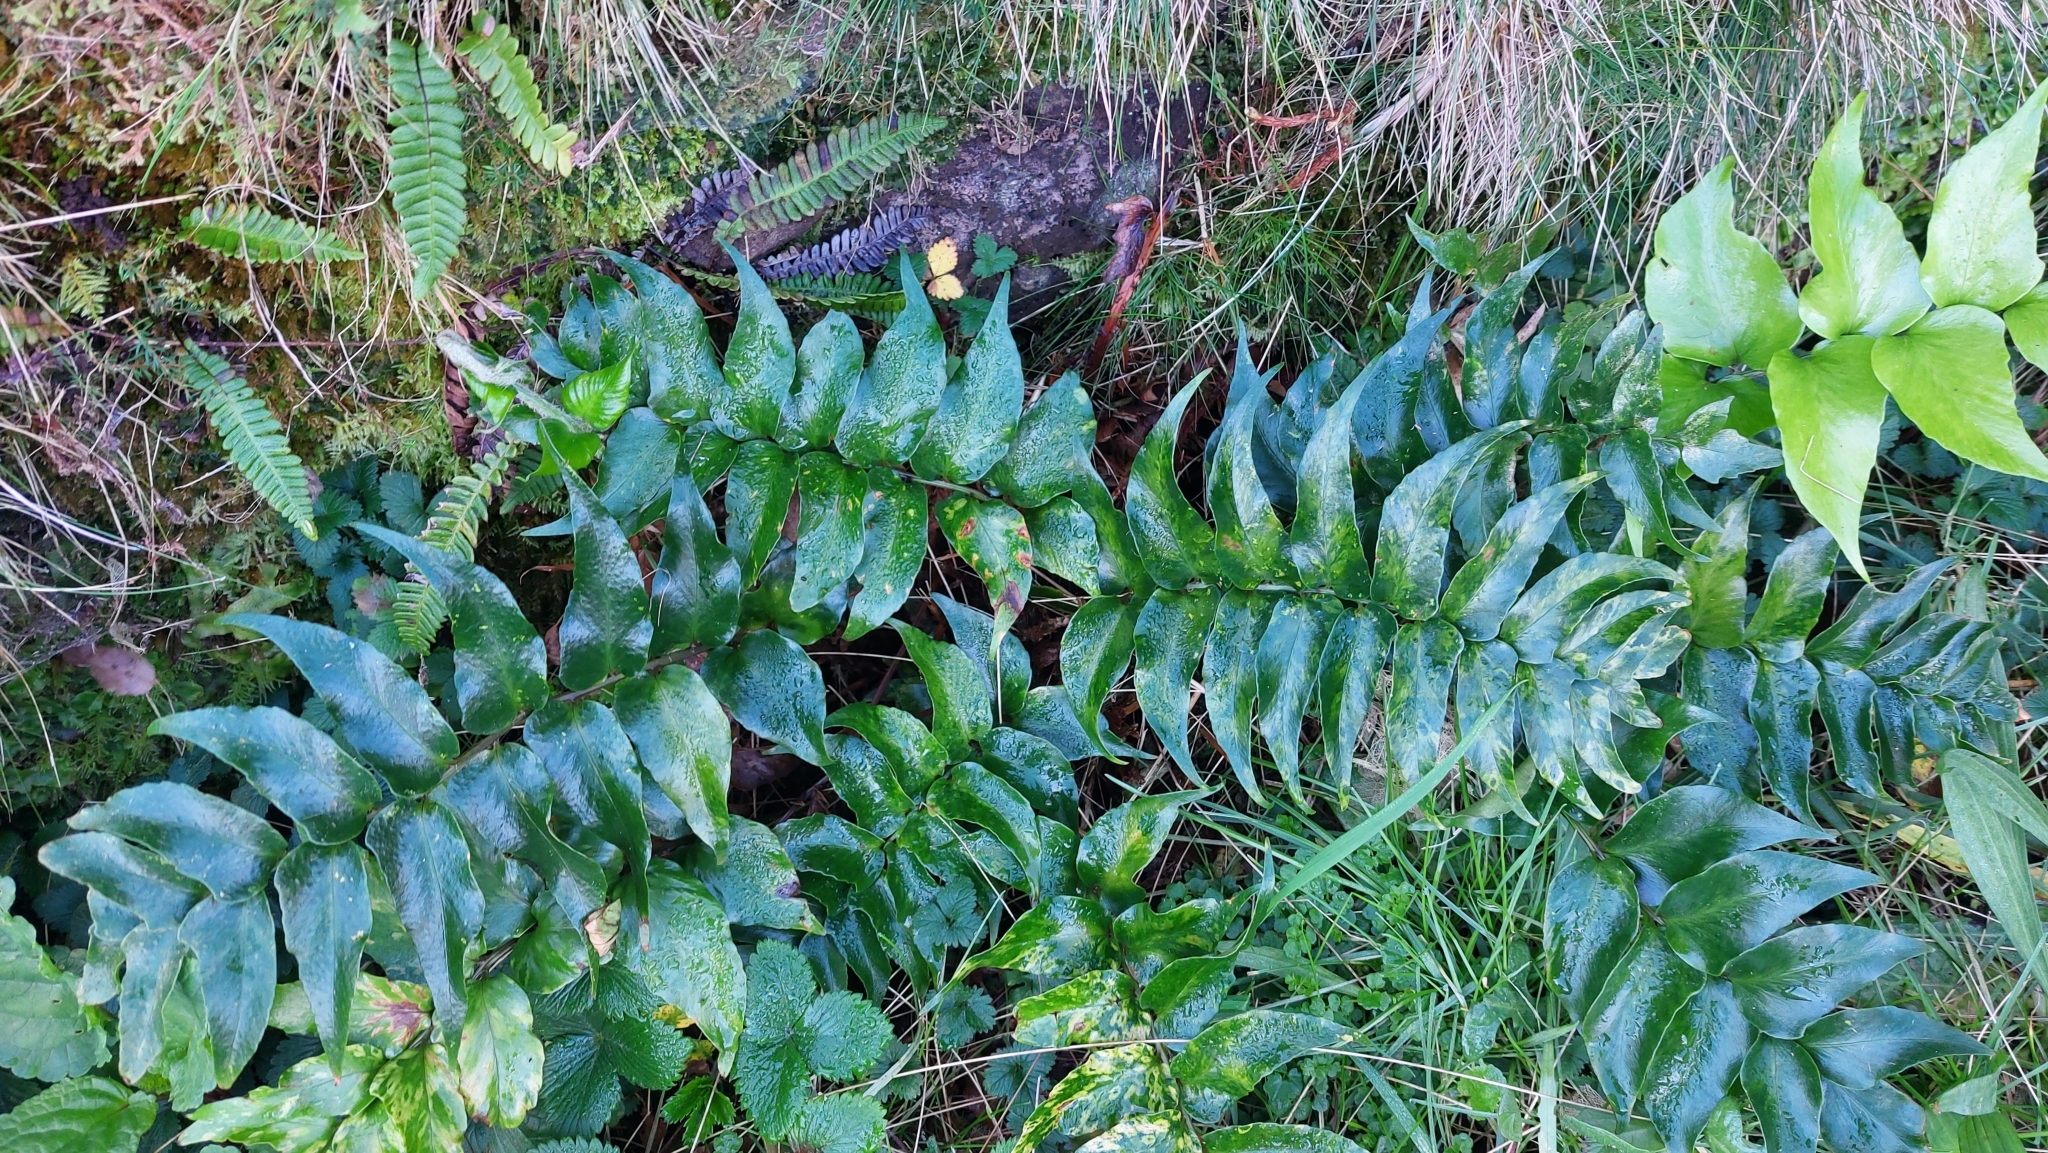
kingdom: Plantae
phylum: Tracheophyta
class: Polypodiopsida
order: Polypodiales
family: Dryopteridaceae
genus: Cyrtomium
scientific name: Cyrtomium falcatum
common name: House holly-fern
